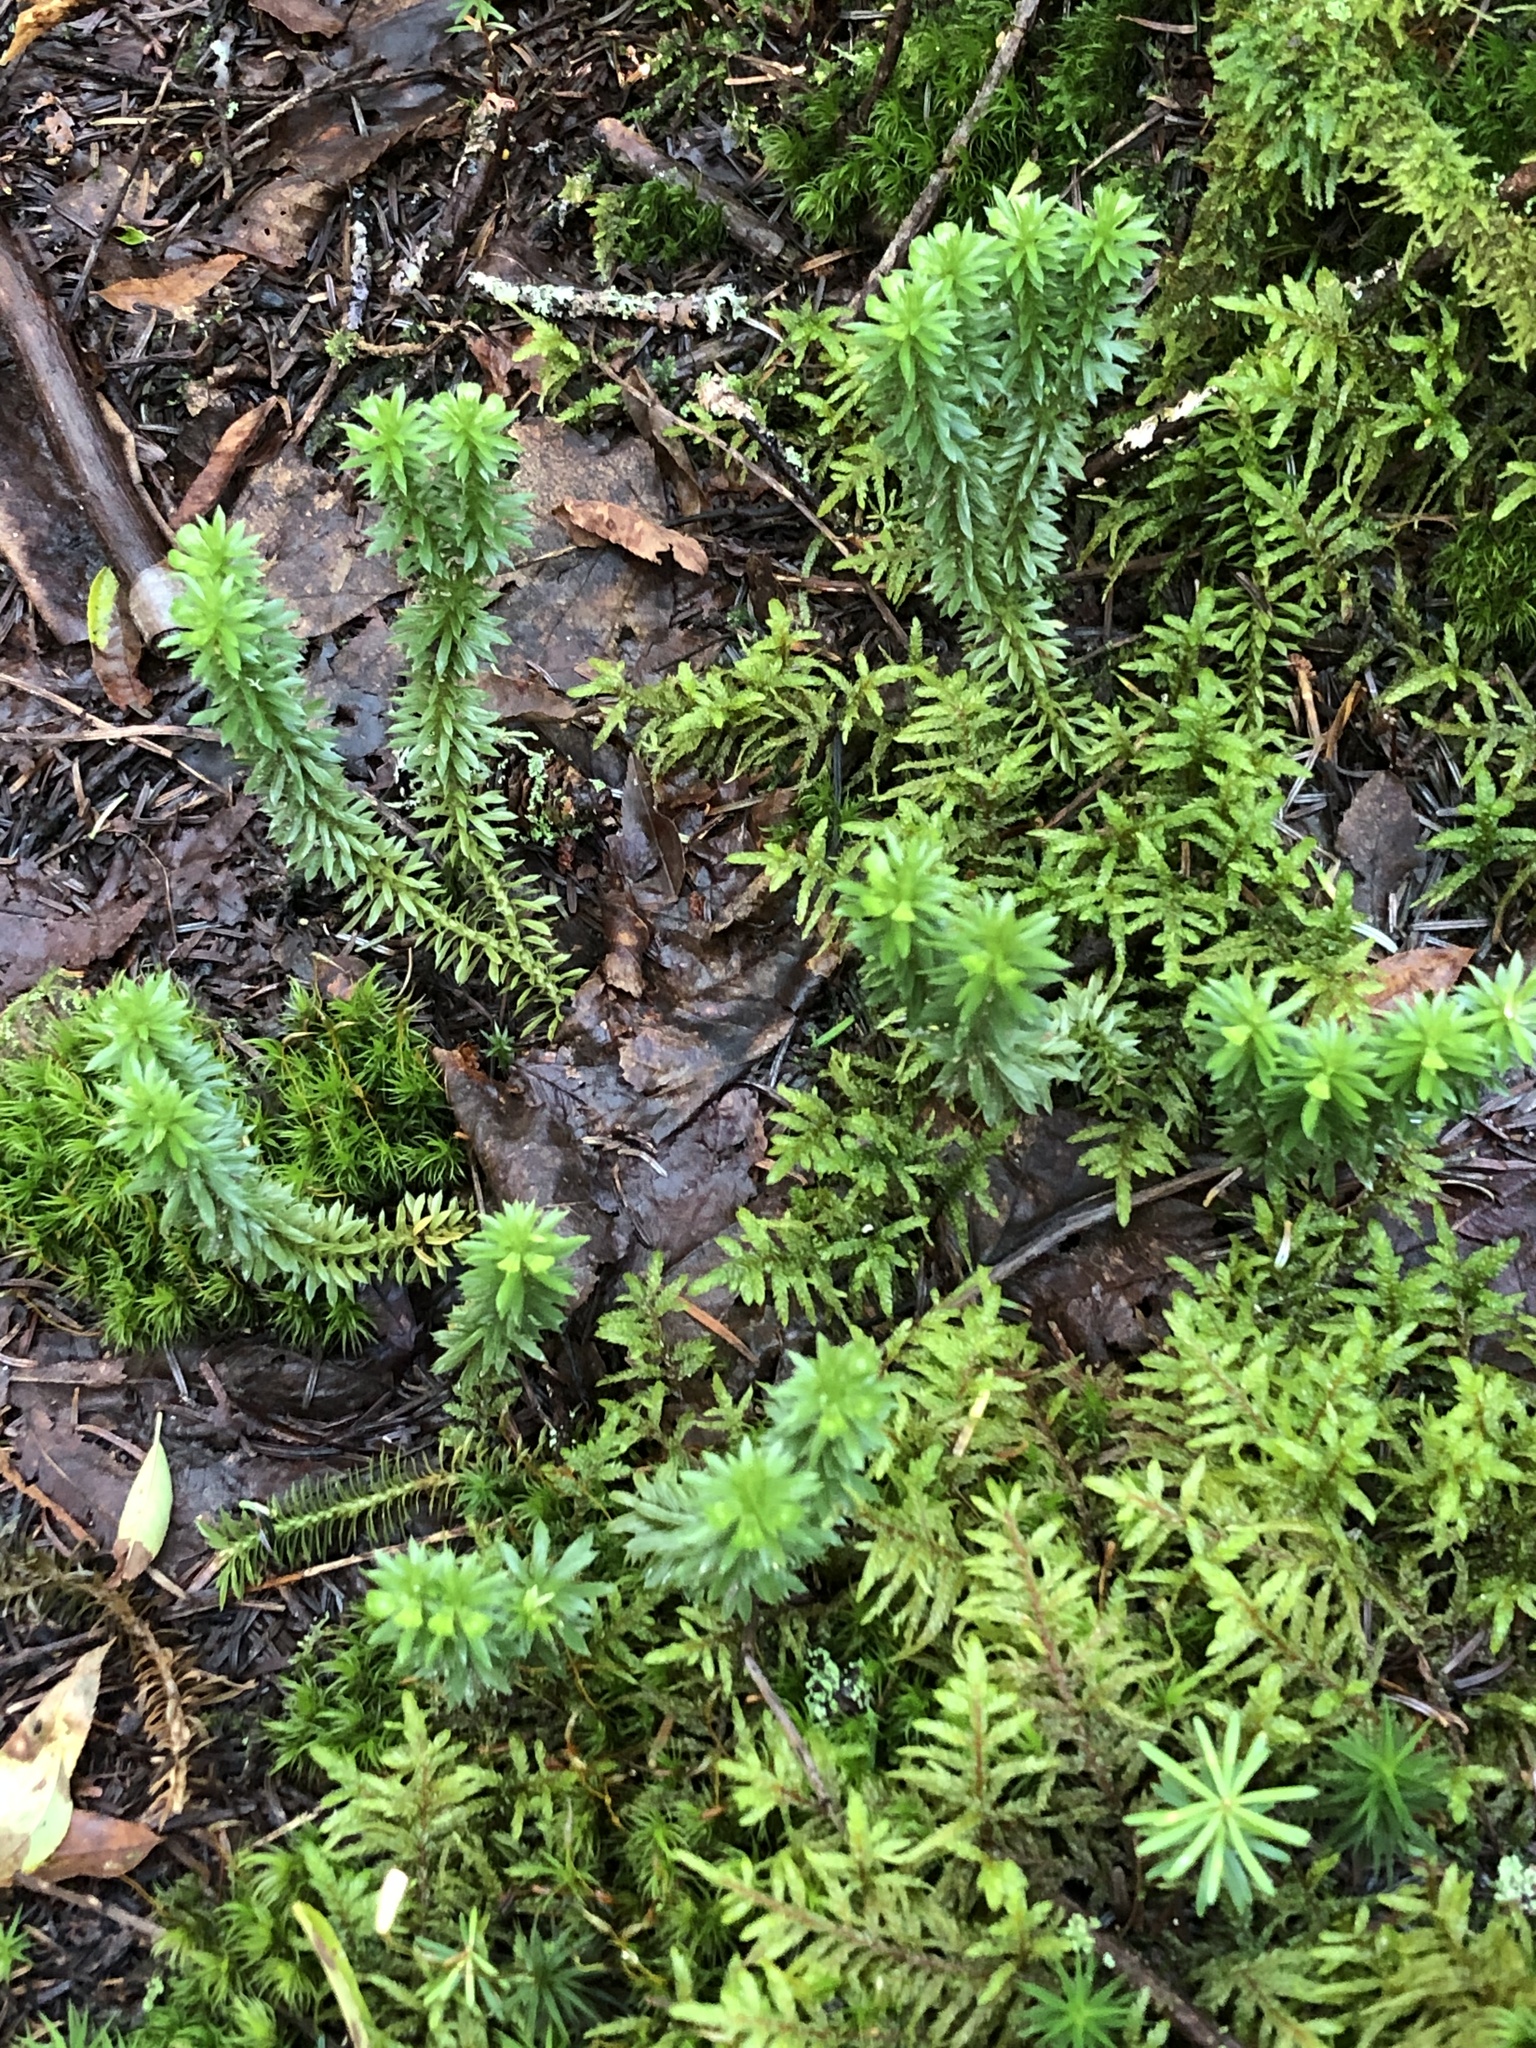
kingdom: Plantae
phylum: Tracheophyta
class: Lycopodiopsida
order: Lycopodiales
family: Lycopodiaceae
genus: Huperzia
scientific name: Huperzia lucidula
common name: Shining clubmoss
